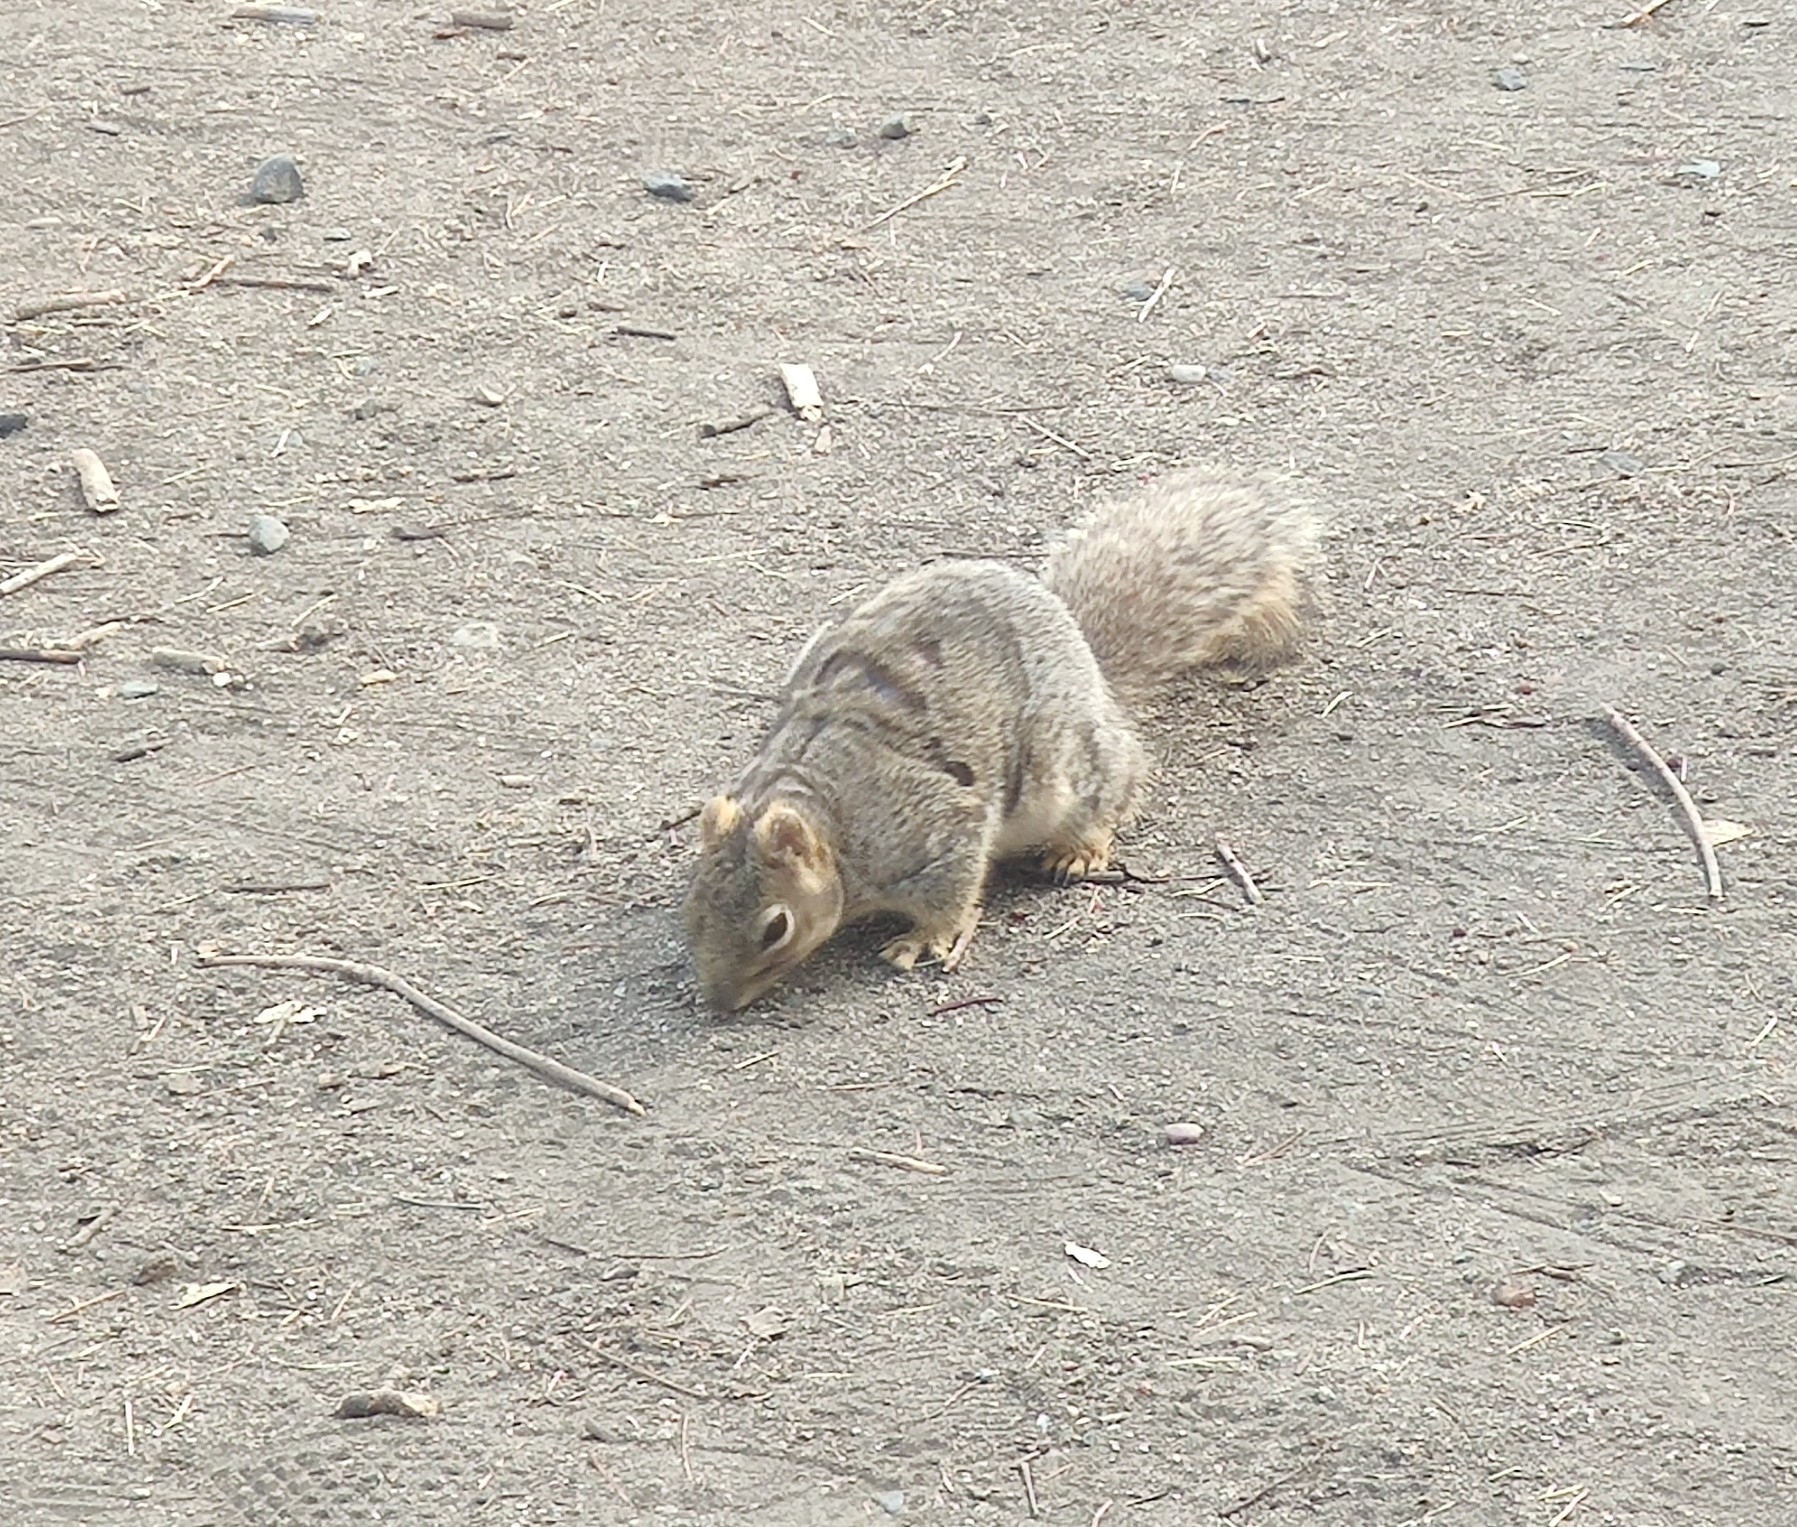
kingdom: Animalia
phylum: Chordata
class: Mammalia
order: Rodentia
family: Sciuridae
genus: Sciurus
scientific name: Sciurus niger
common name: Fox squirrel
